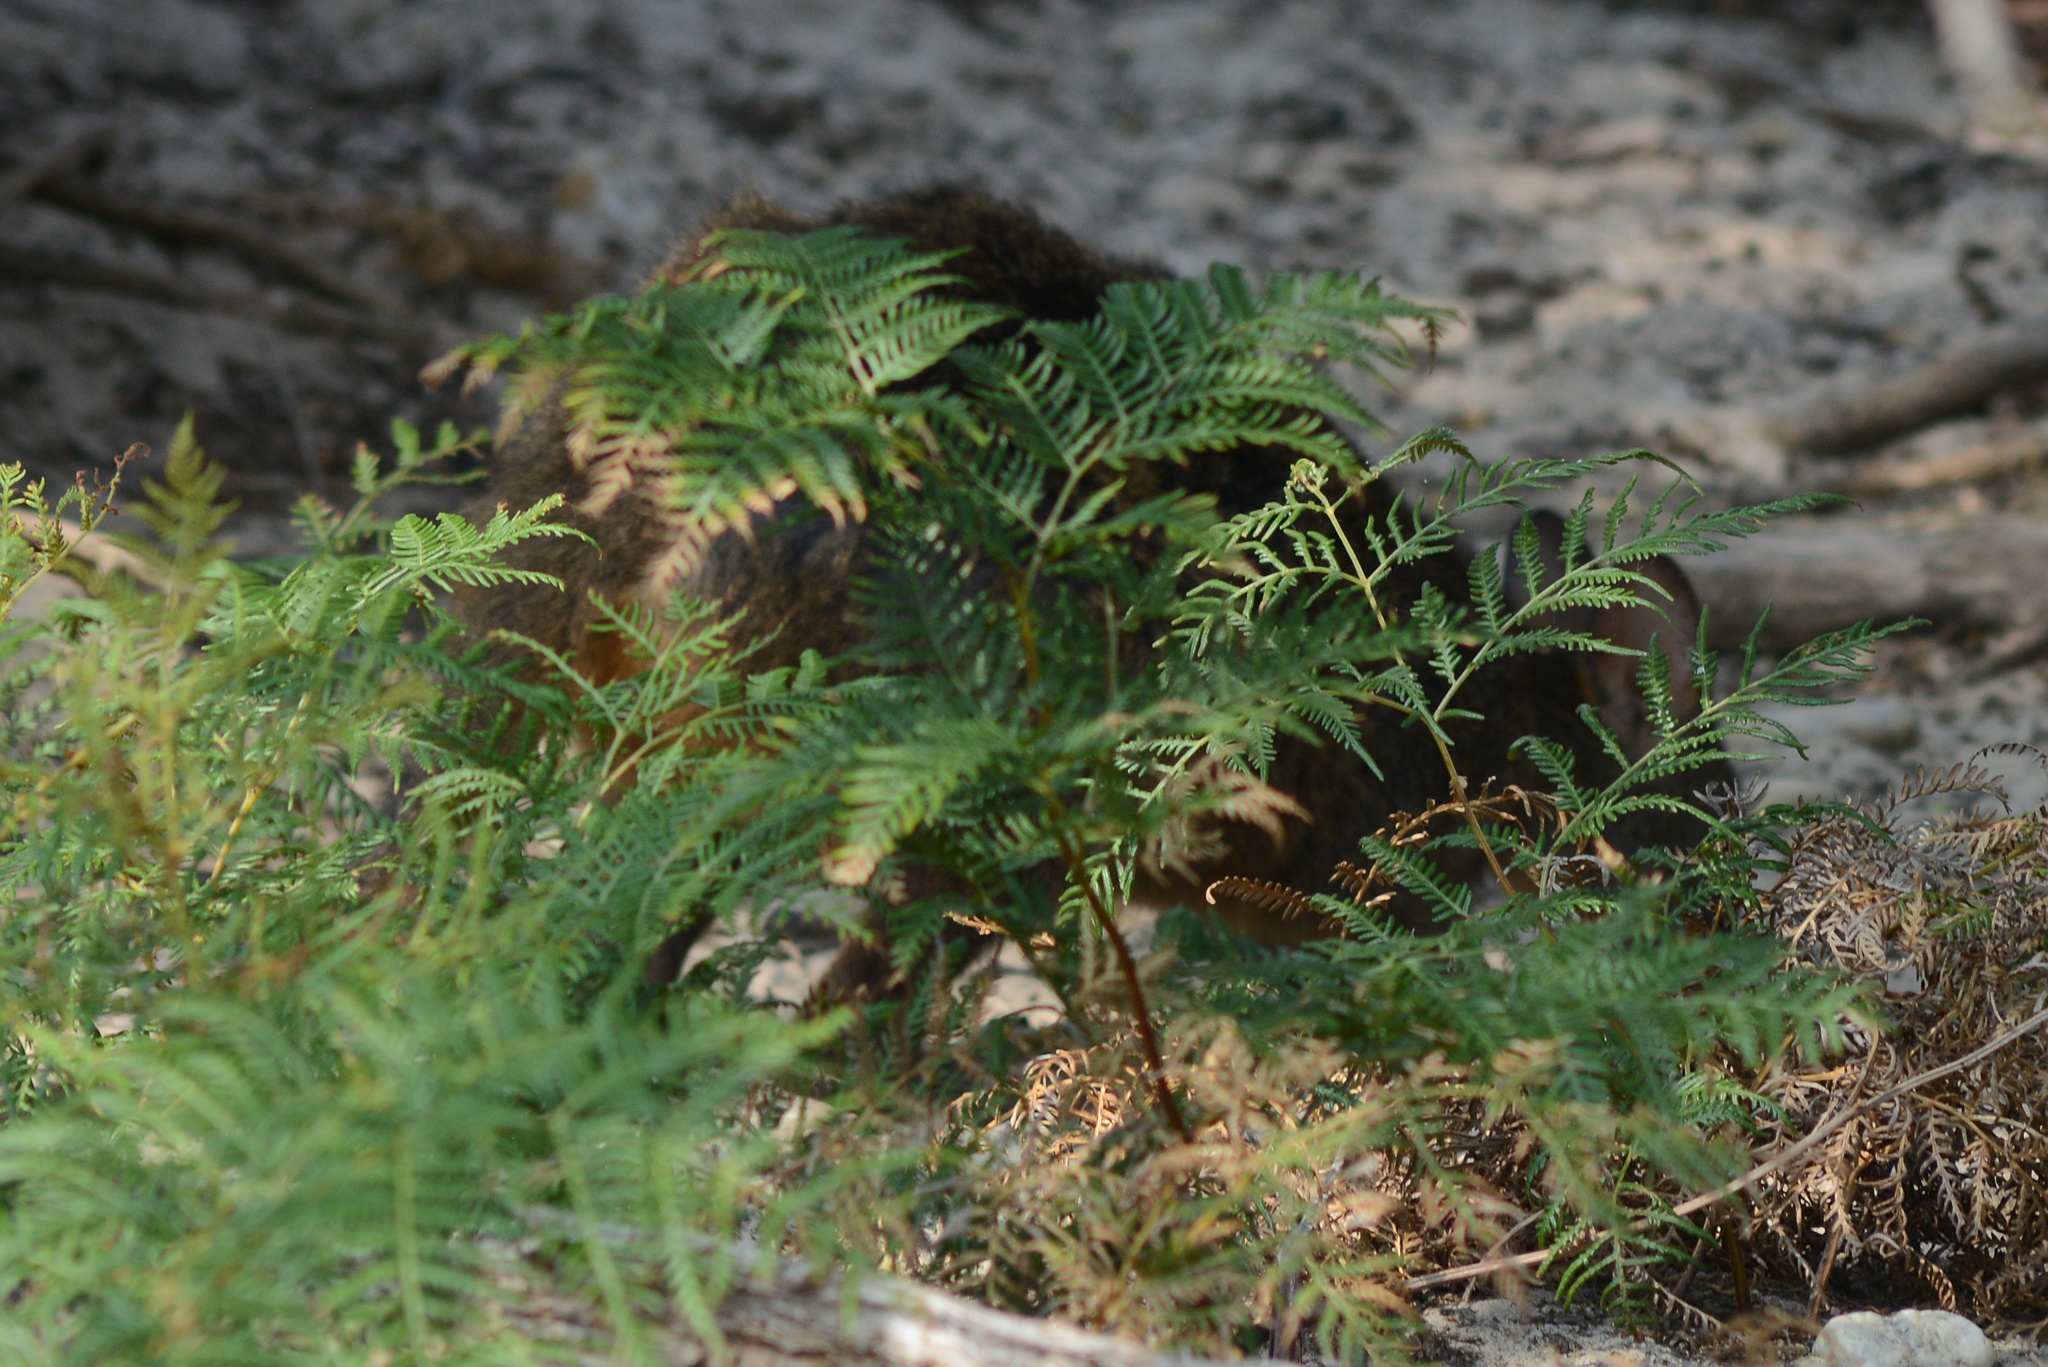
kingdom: Animalia
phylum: Chordata
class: Mammalia
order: Diprotodontia
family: Macropodidae
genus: Thylogale
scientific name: Thylogale billardierii
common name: Tasmanian pademelon
